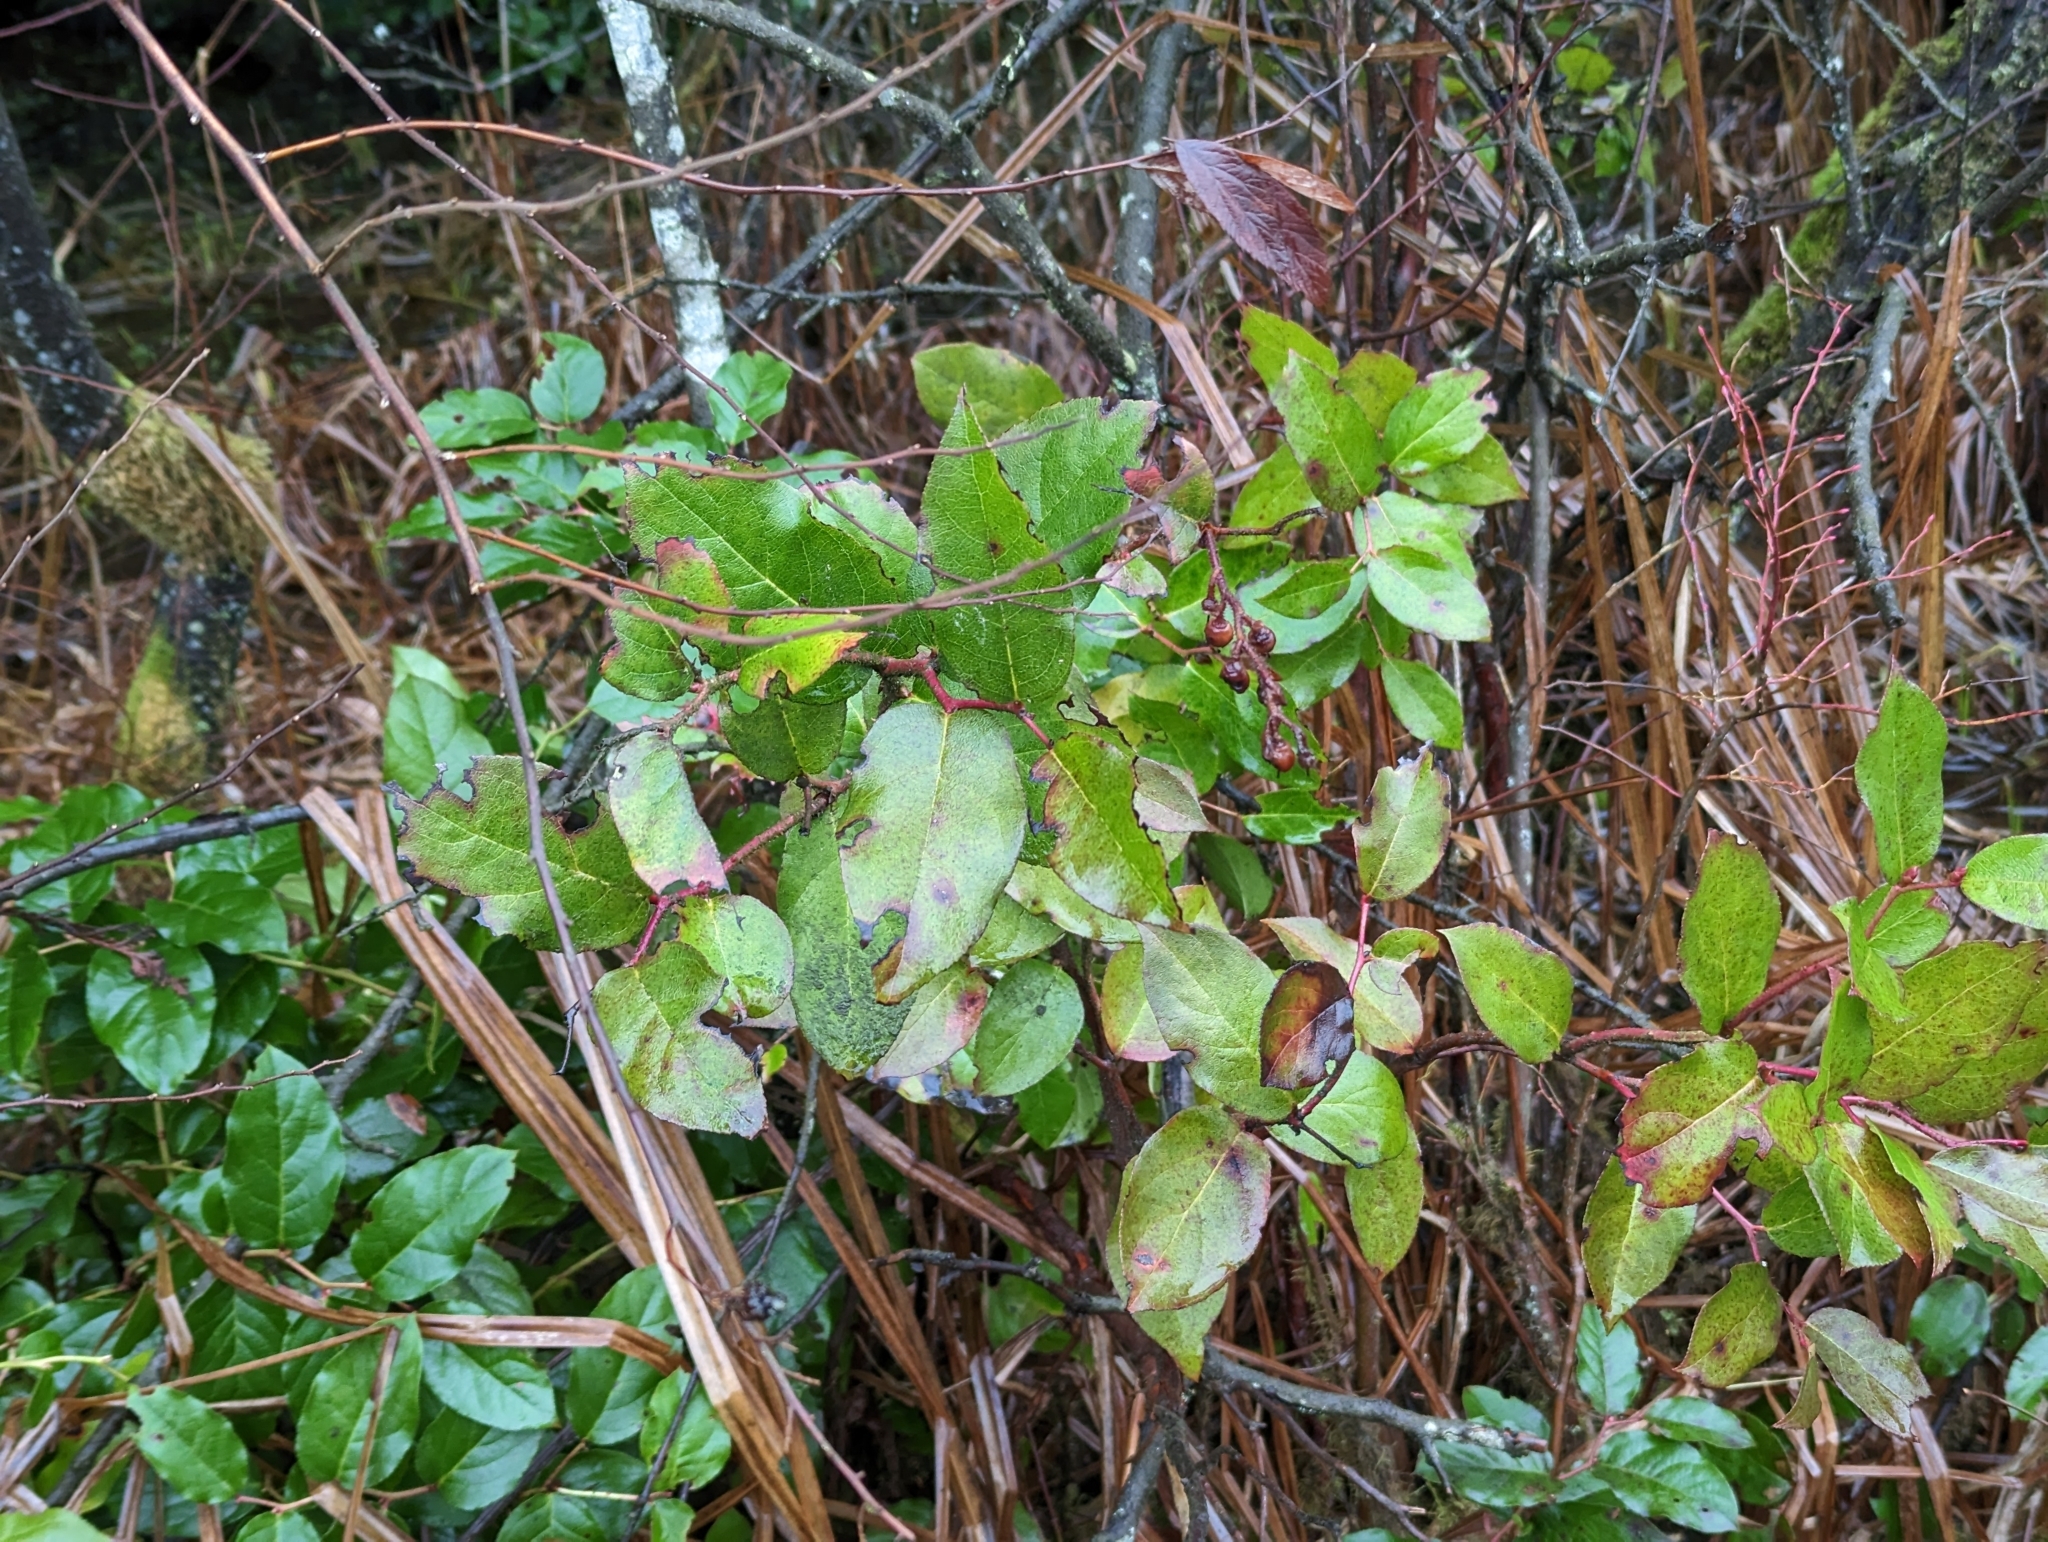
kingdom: Plantae
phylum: Tracheophyta
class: Magnoliopsida
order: Ericales
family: Ericaceae
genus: Gaultheria
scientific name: Gaultheria shallon
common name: Shallon
